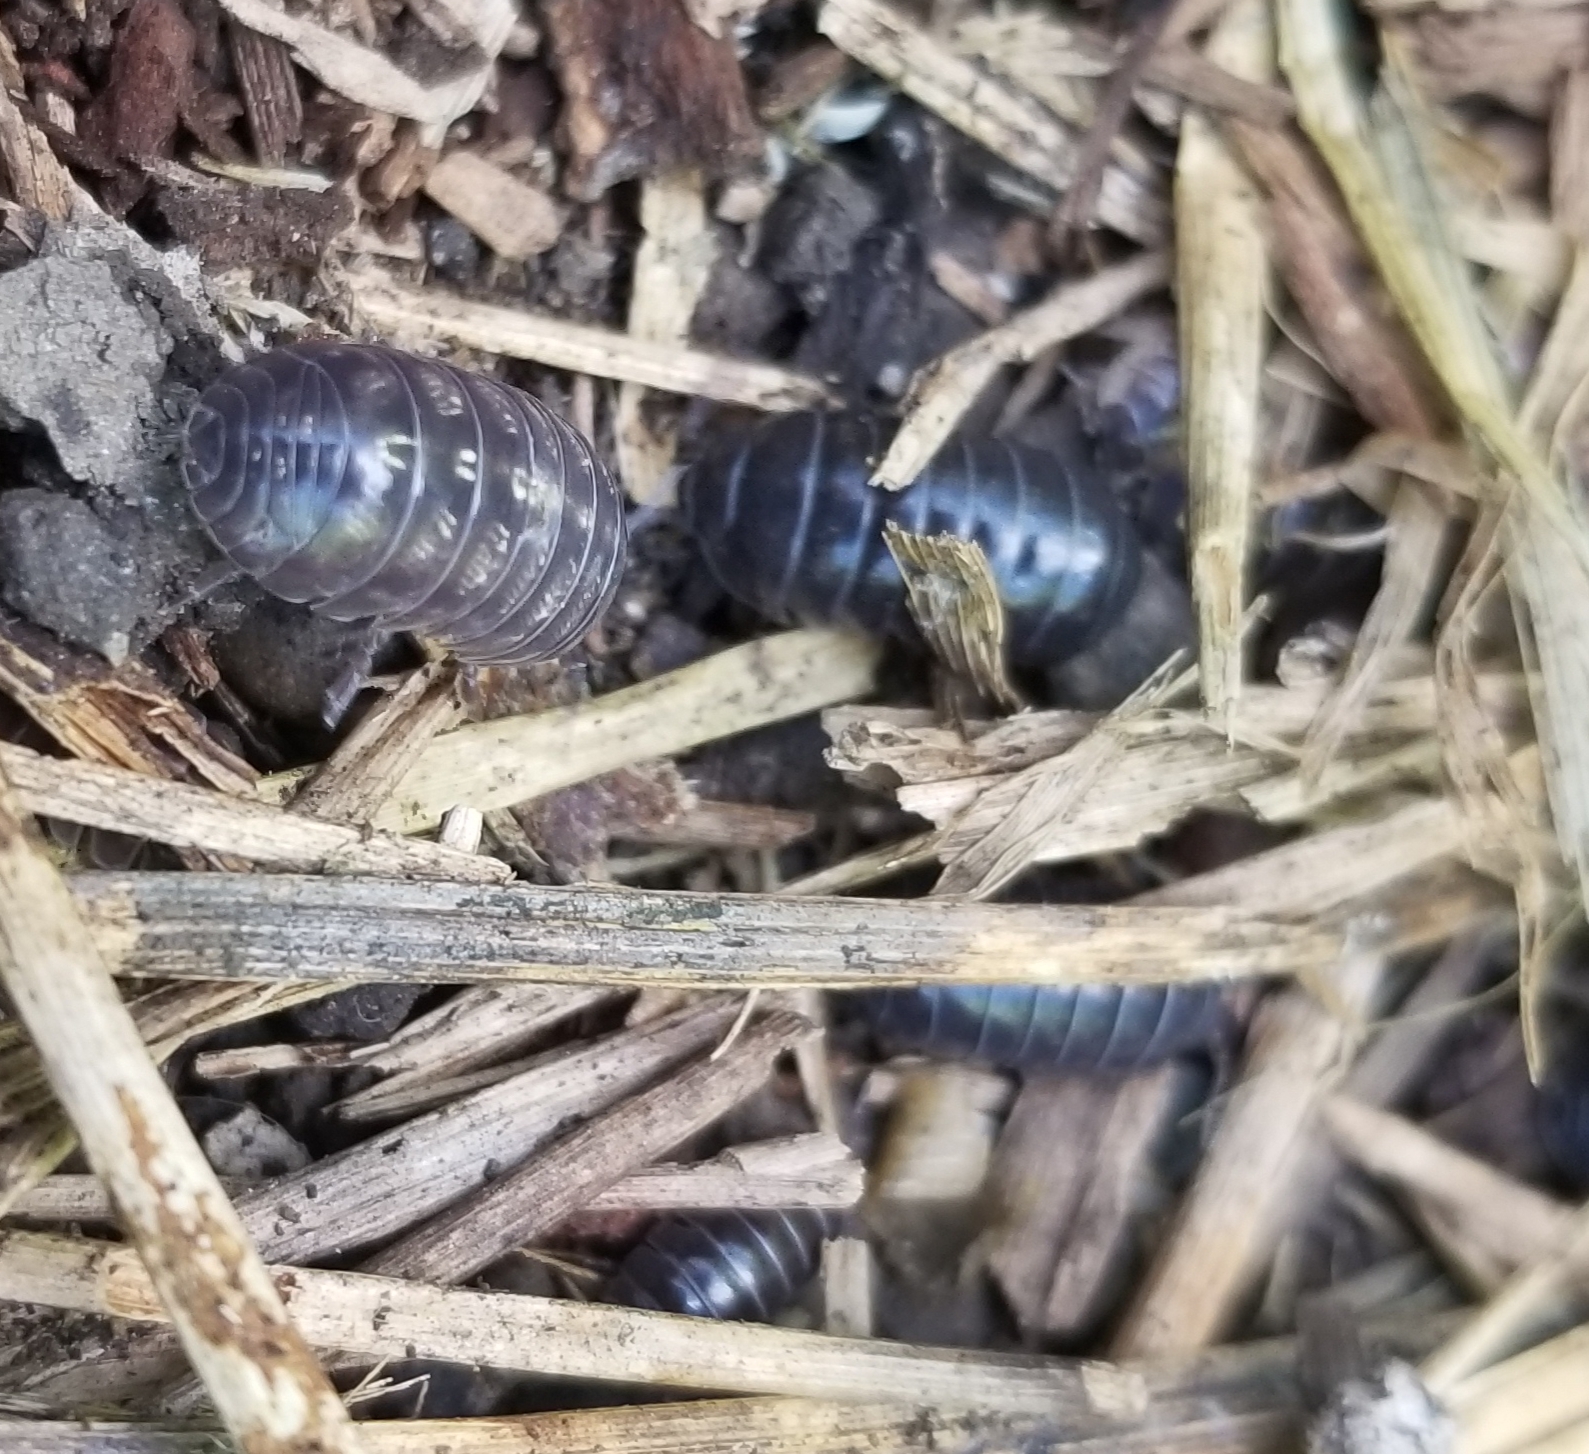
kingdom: Animalia
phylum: Arthropoda
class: Malacostraca
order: Isopoda
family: Armadillidiidae
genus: Armadillidium
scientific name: Armadillidium vulgare
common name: Common pill woodlouse
